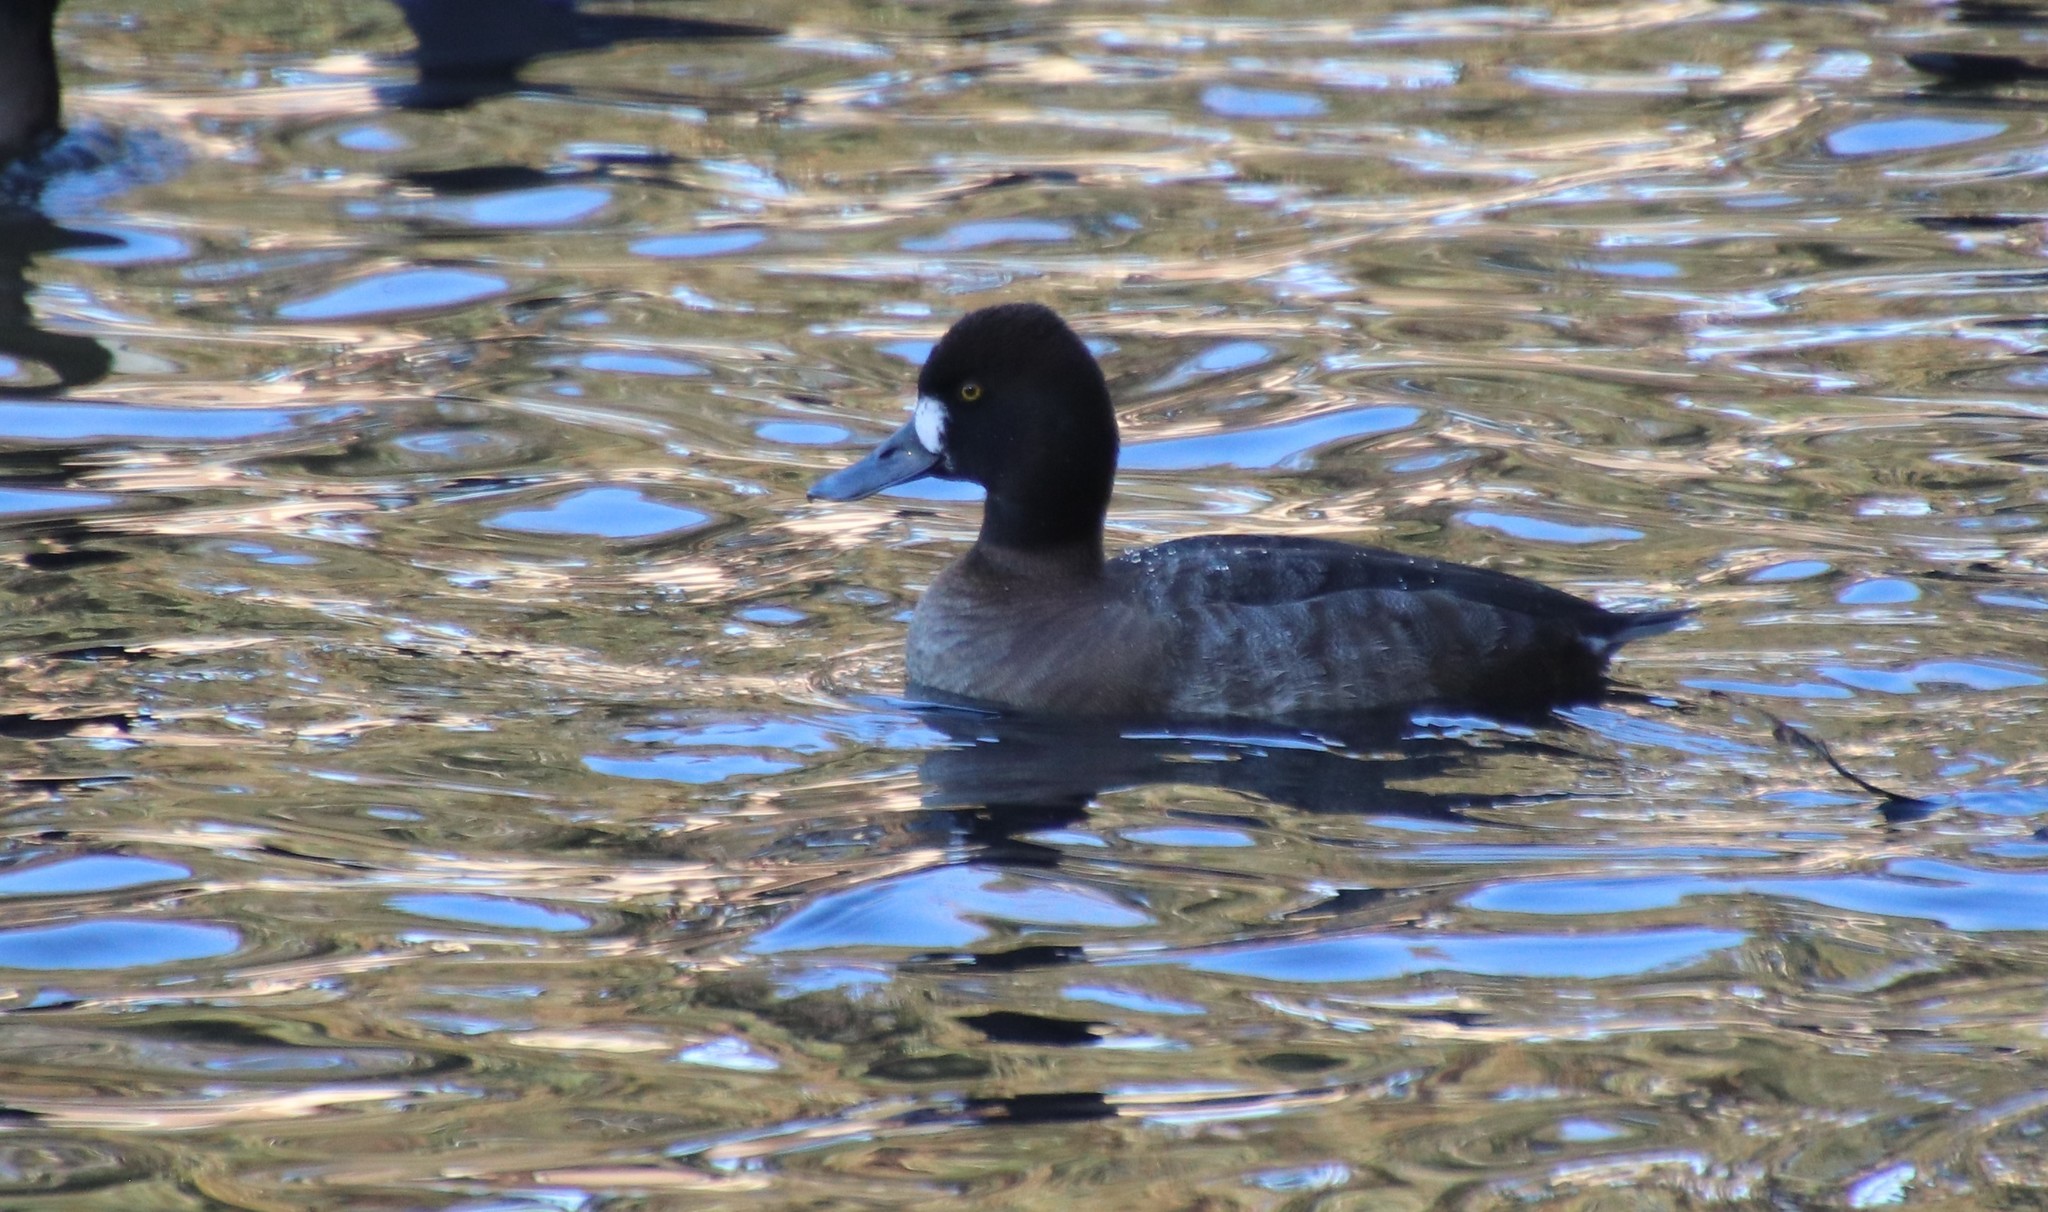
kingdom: Animalia
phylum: Chordata
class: Aves
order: Anseriformes
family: Anatidae
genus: Aythya
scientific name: Aythya affinis
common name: Lesser scaup
